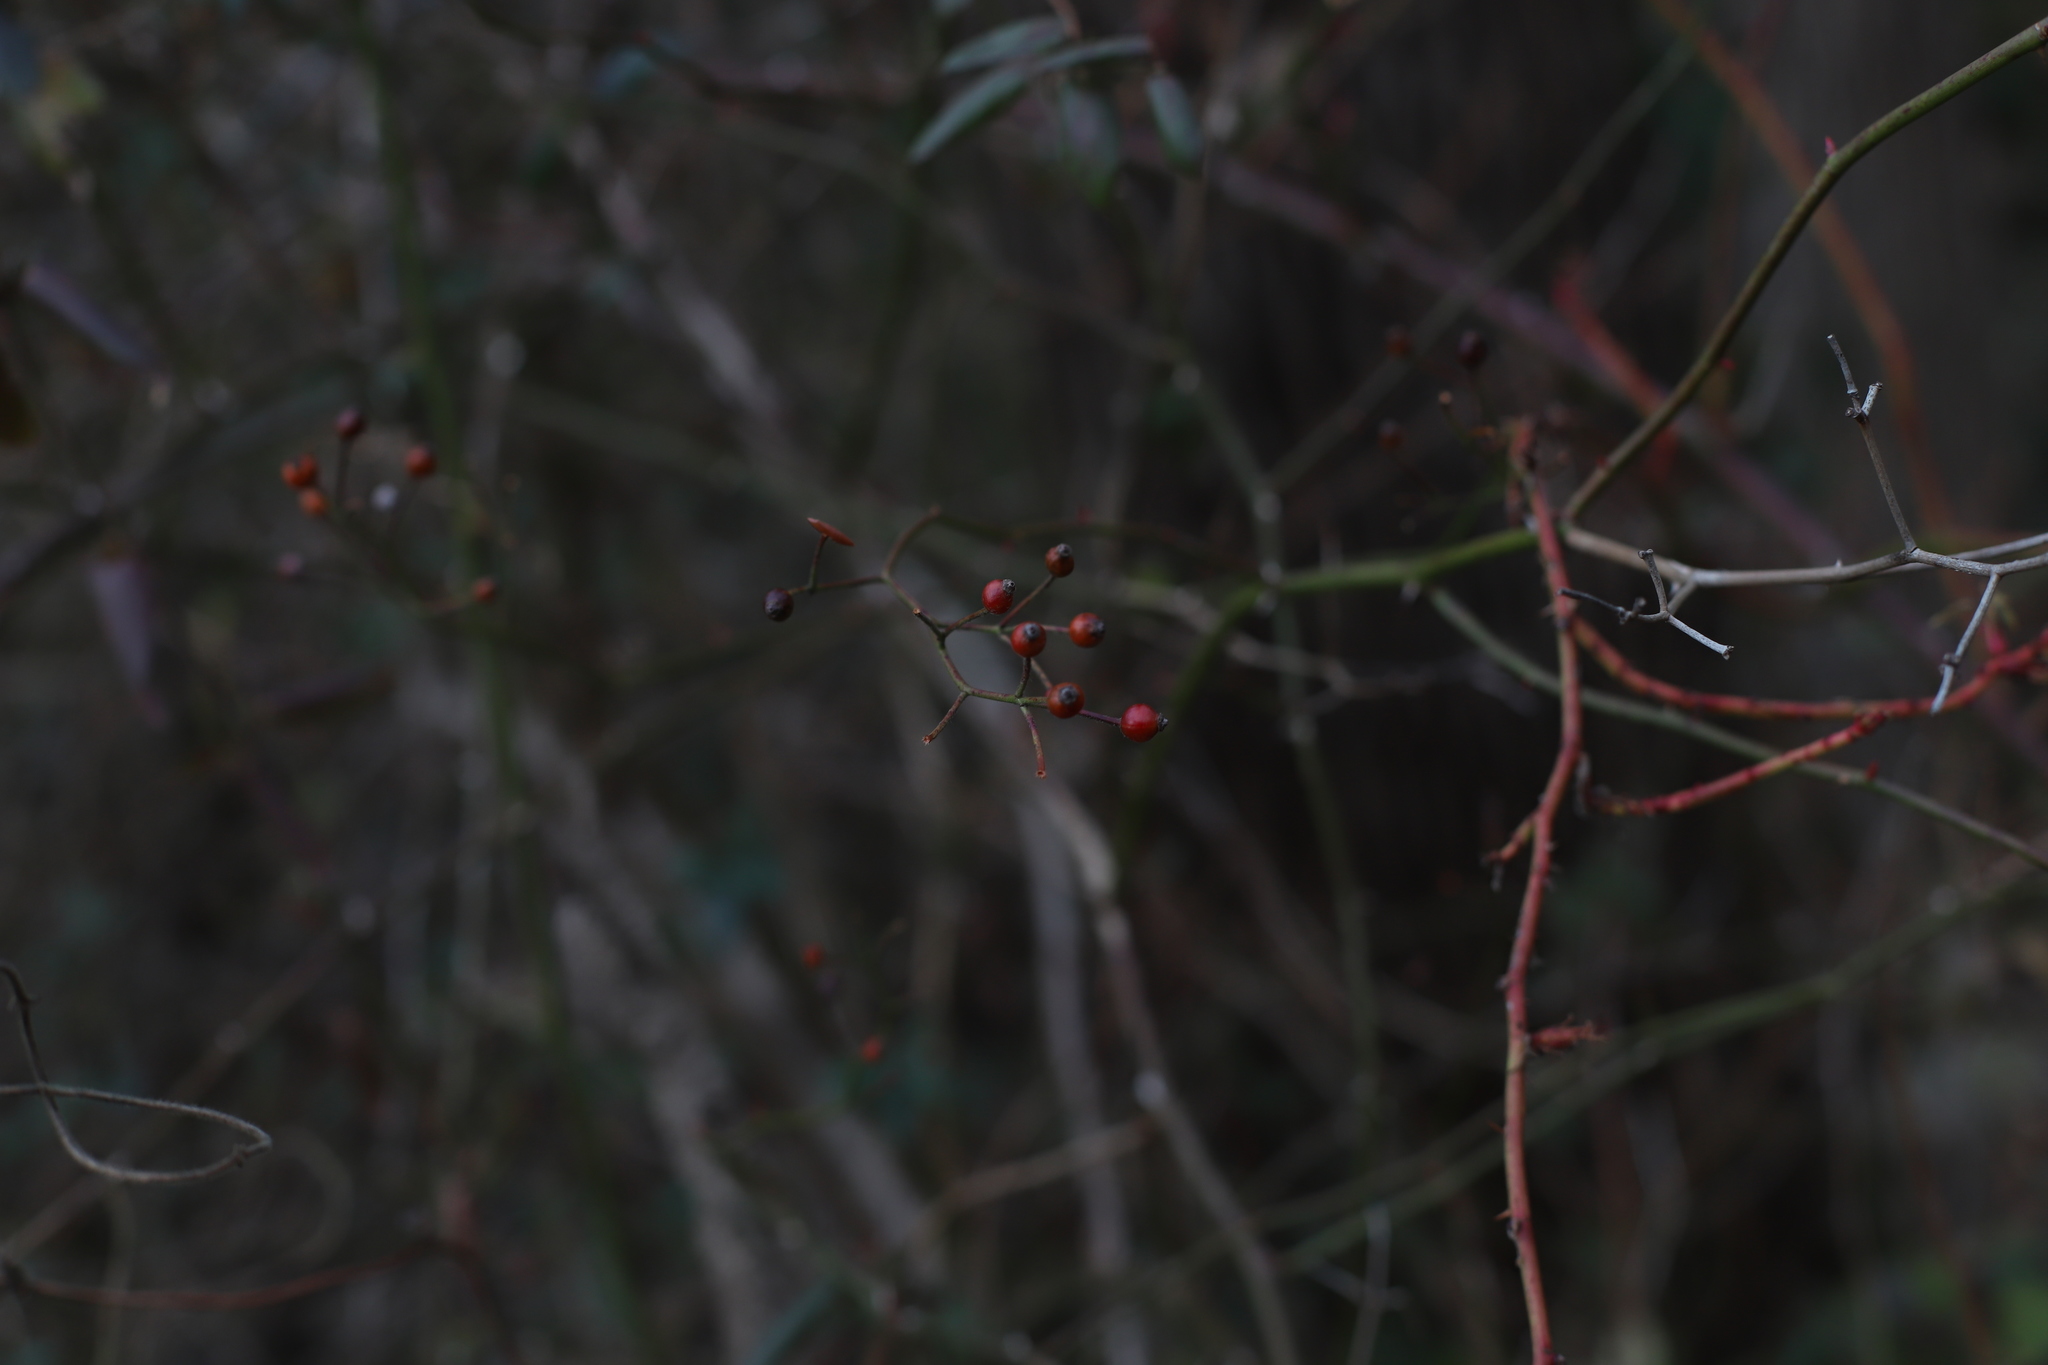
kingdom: Plantae
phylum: Tracheophyta
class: Magnoliopsida
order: Rosales
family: Rosaceae
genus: Rosa
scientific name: Rosa multiflora
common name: Multiflora rose
